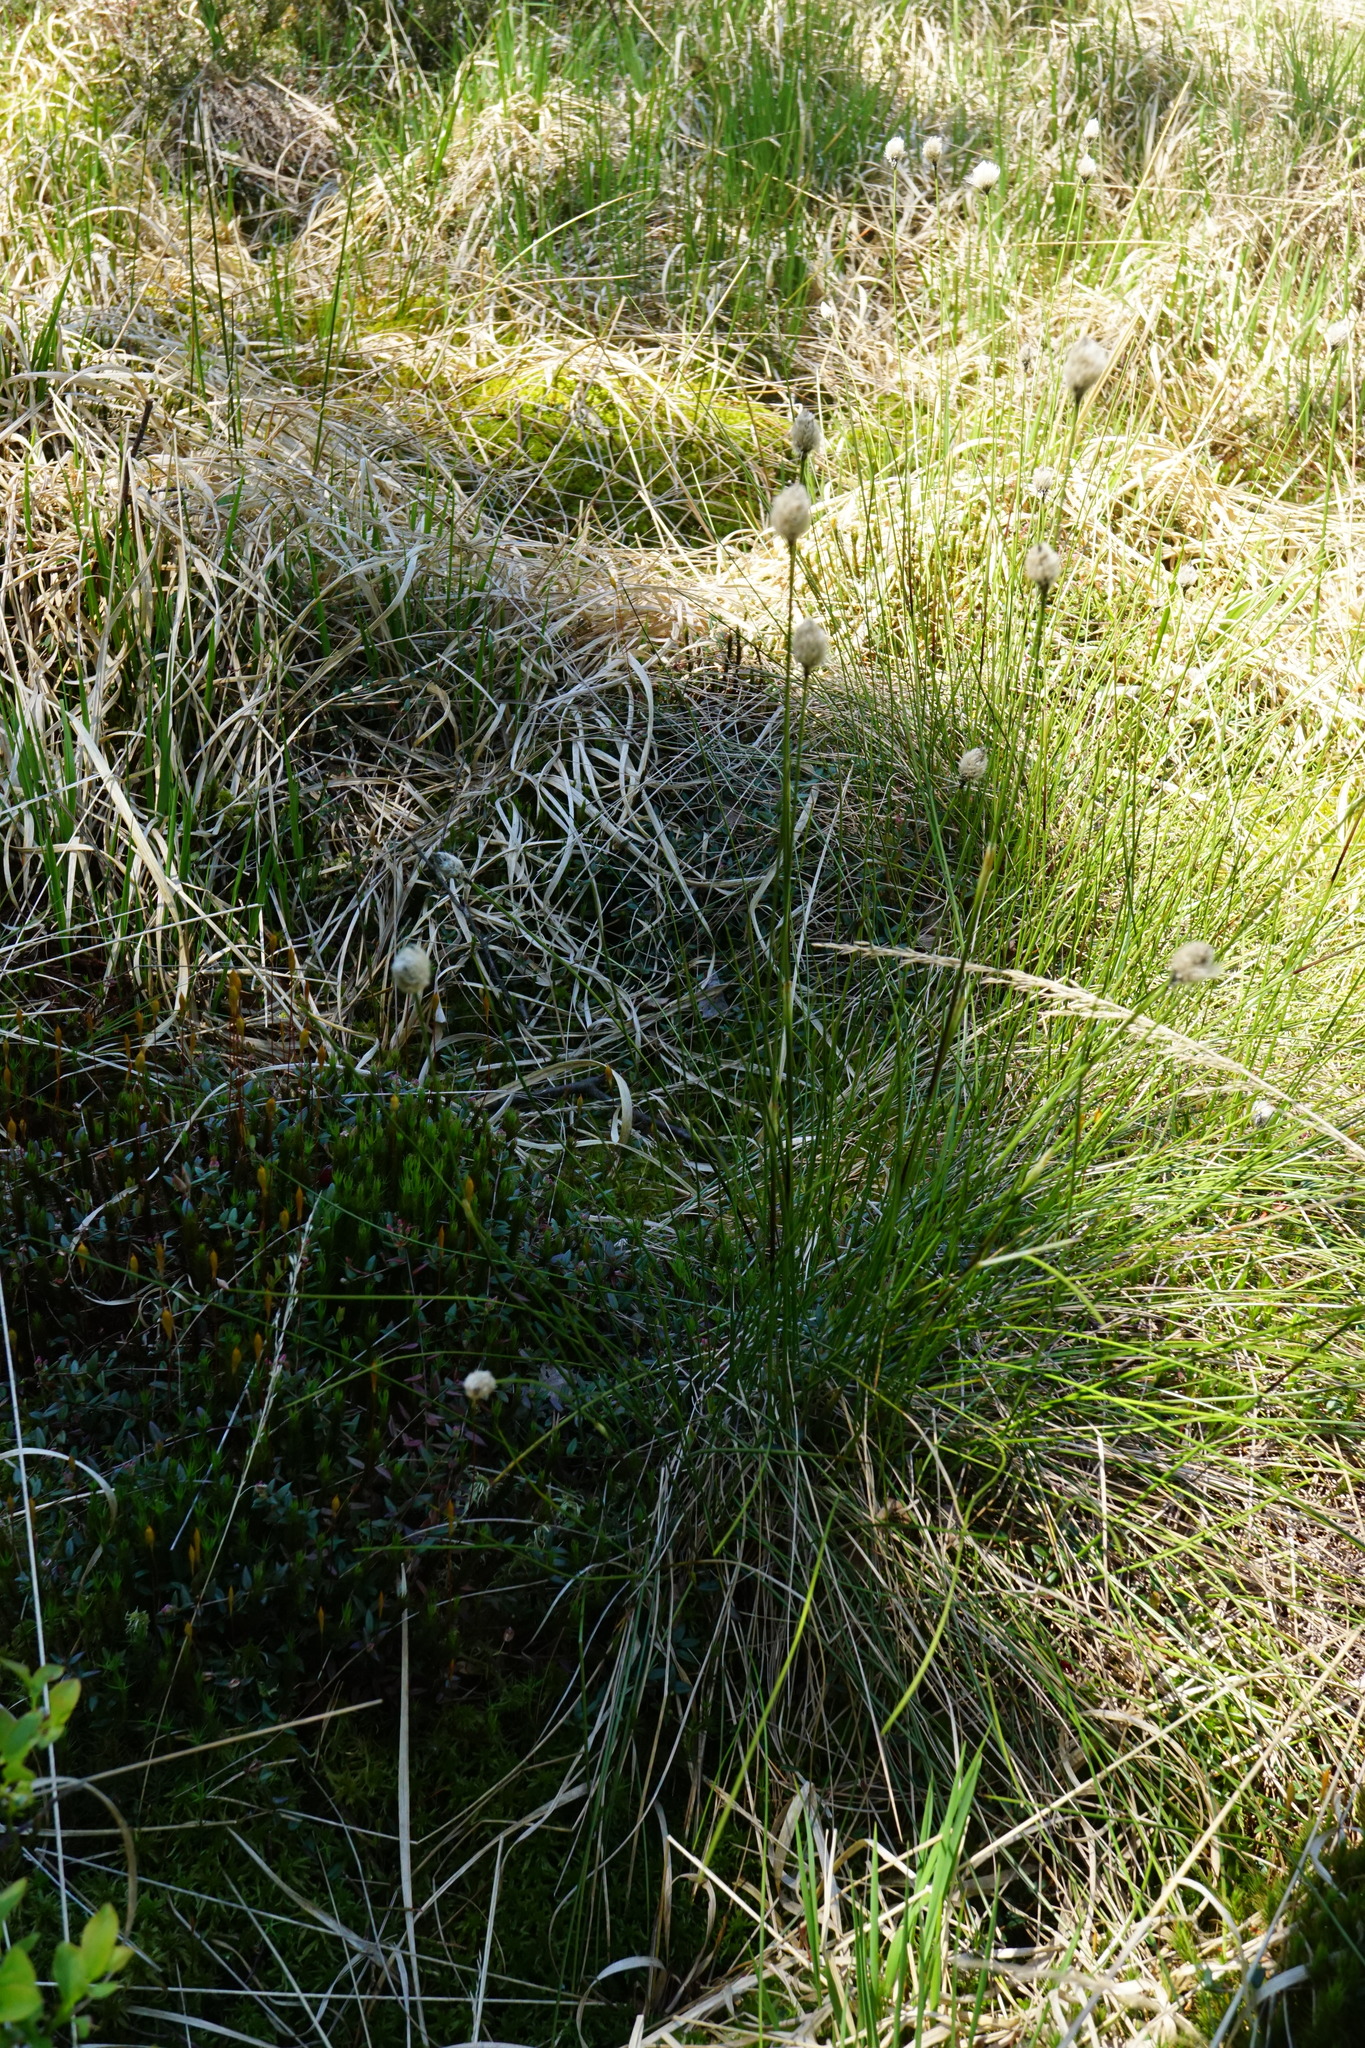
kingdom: Plantae
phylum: Tracheophyta
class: Liliopsida
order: Poales
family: Cyperaceae
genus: Eriophorum
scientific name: Eriophorum vaginatum
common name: Hare's-tail cottongrass
